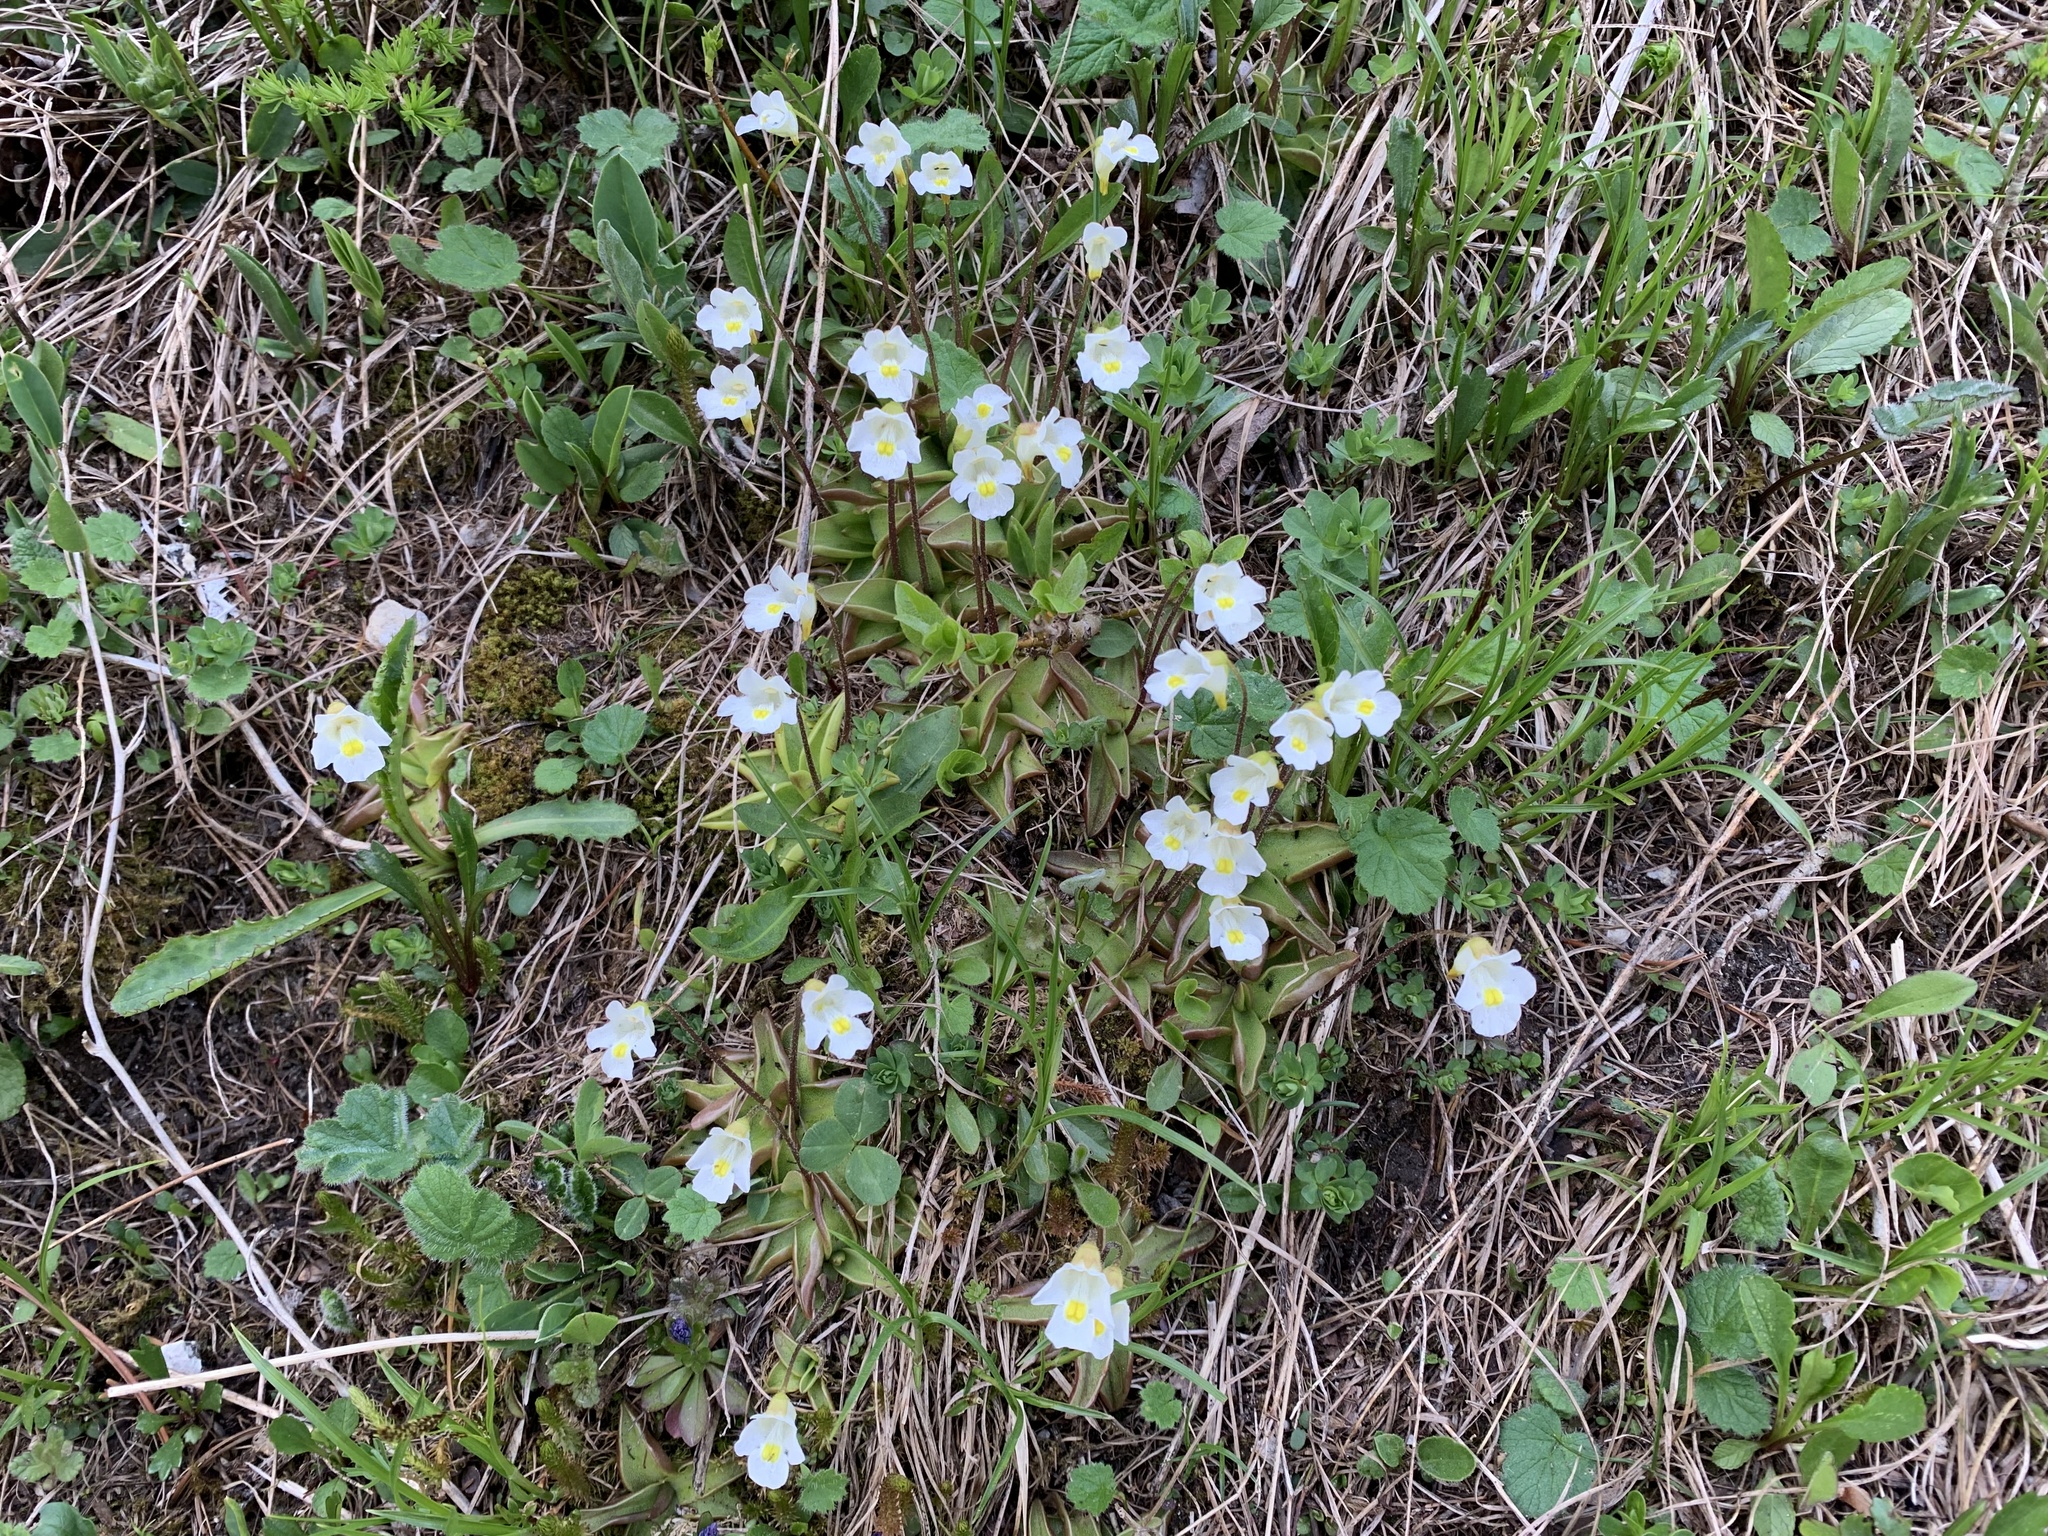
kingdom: Plantae
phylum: Tracheophyta
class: Magnoliopsida
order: Lamiales
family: Lentibulariaceae
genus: Pinguicula
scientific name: Pinguicula alpina
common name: Alpine butterwort
